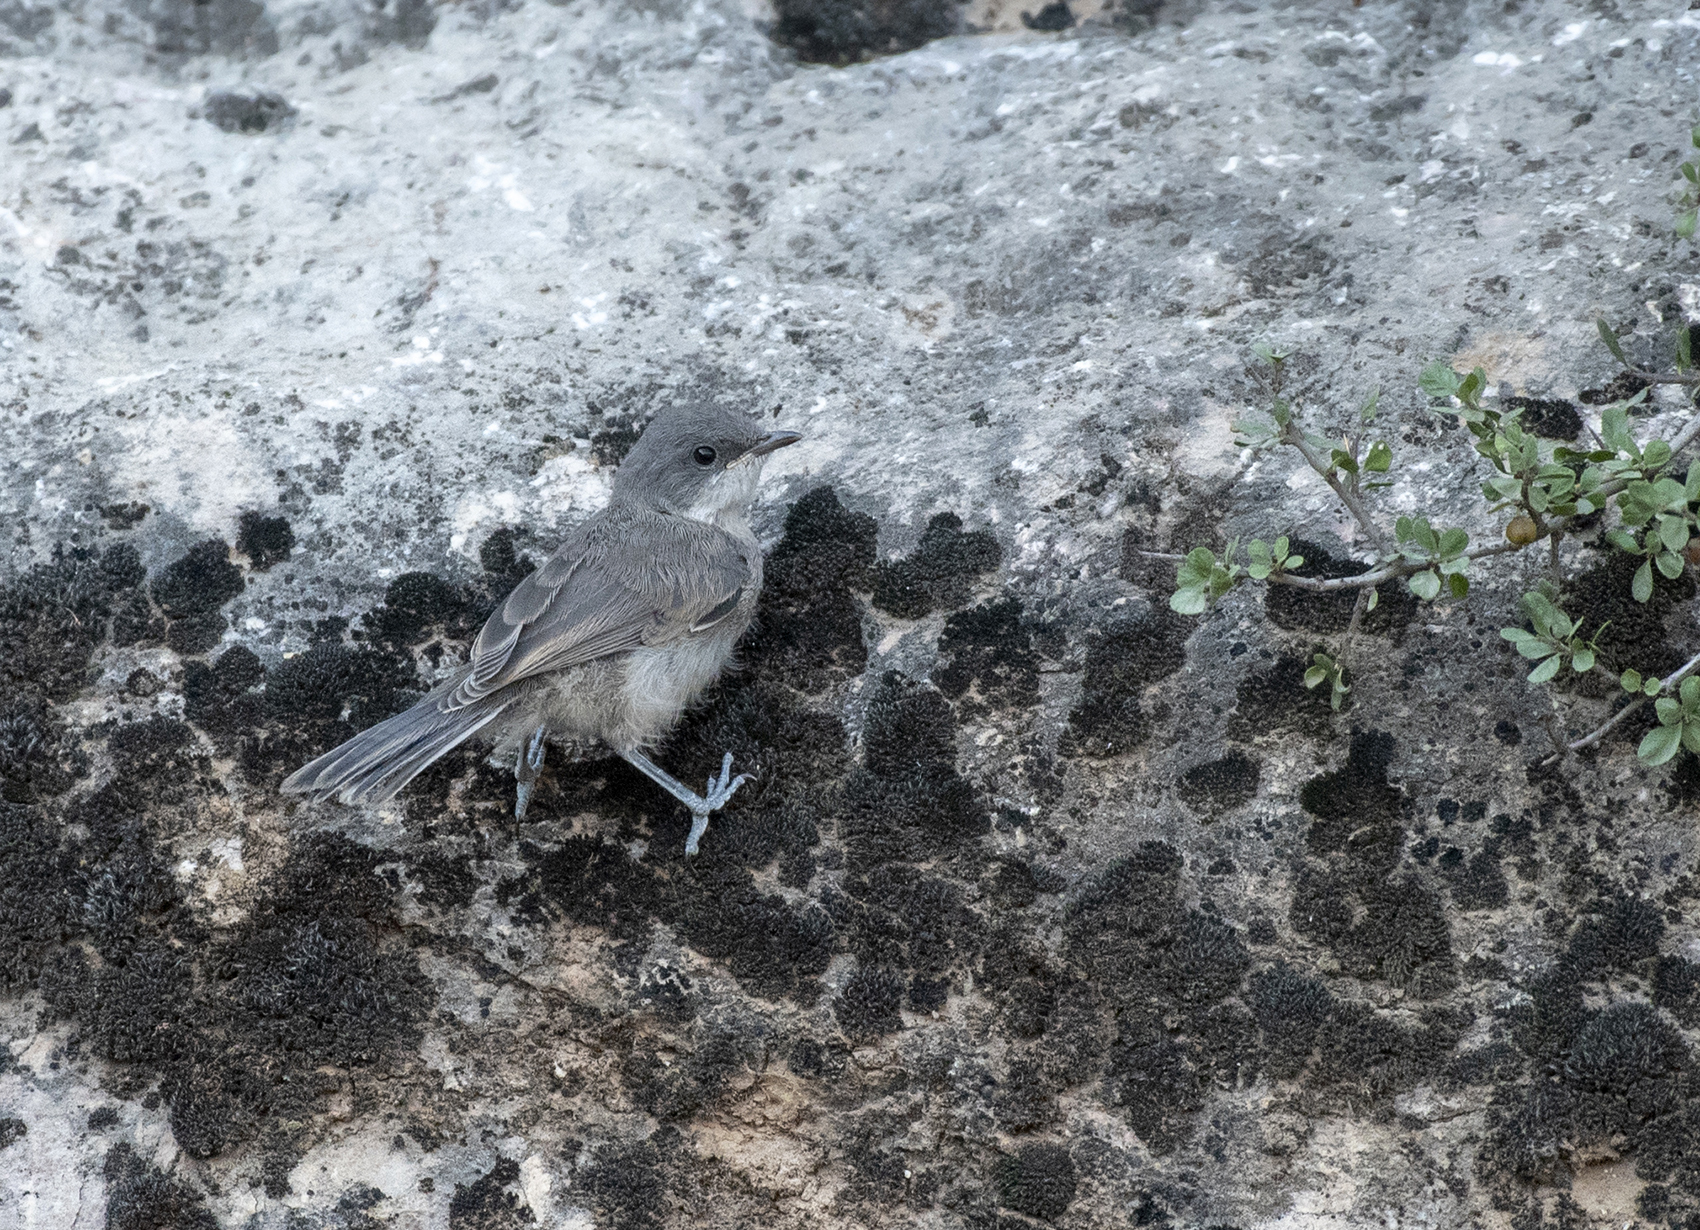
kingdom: Animalia
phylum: Chordata
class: Aves
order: Passeriformes
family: Sylviidae
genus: Sylvia
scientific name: Sylvia curruca
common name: Lesser whitethroat
